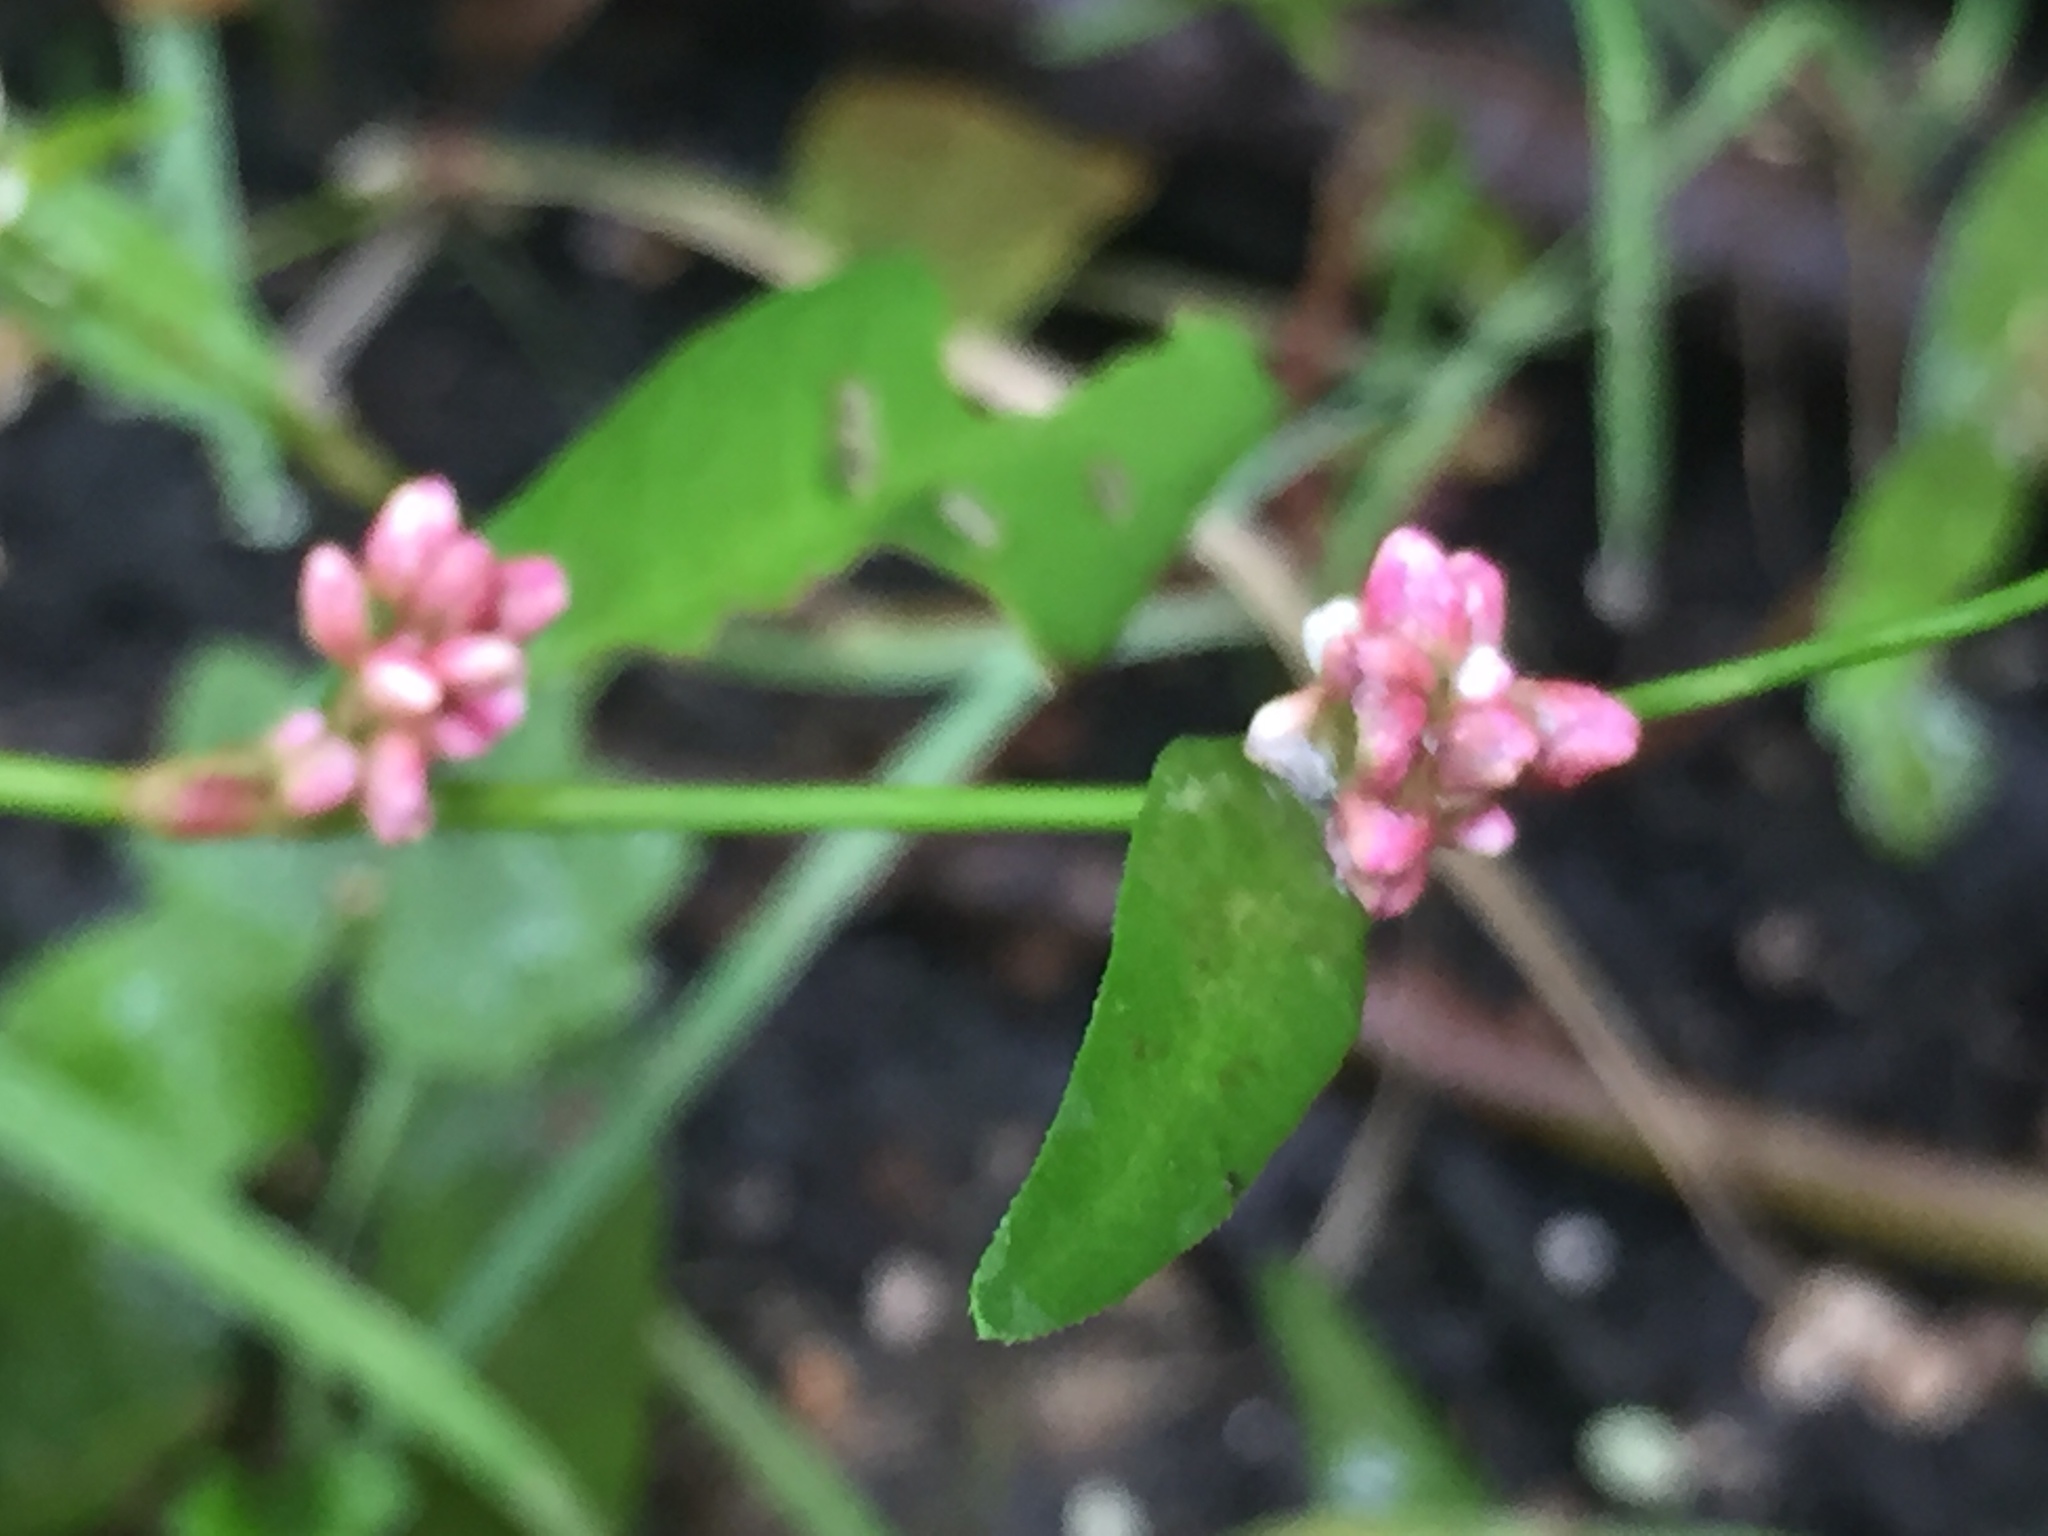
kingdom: Plantae
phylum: Tracheophyta
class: Magnoliopsida
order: Caryophyllales
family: Polygonaceae
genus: Persicaria
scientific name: Persicaria maculosa
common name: Redshank
